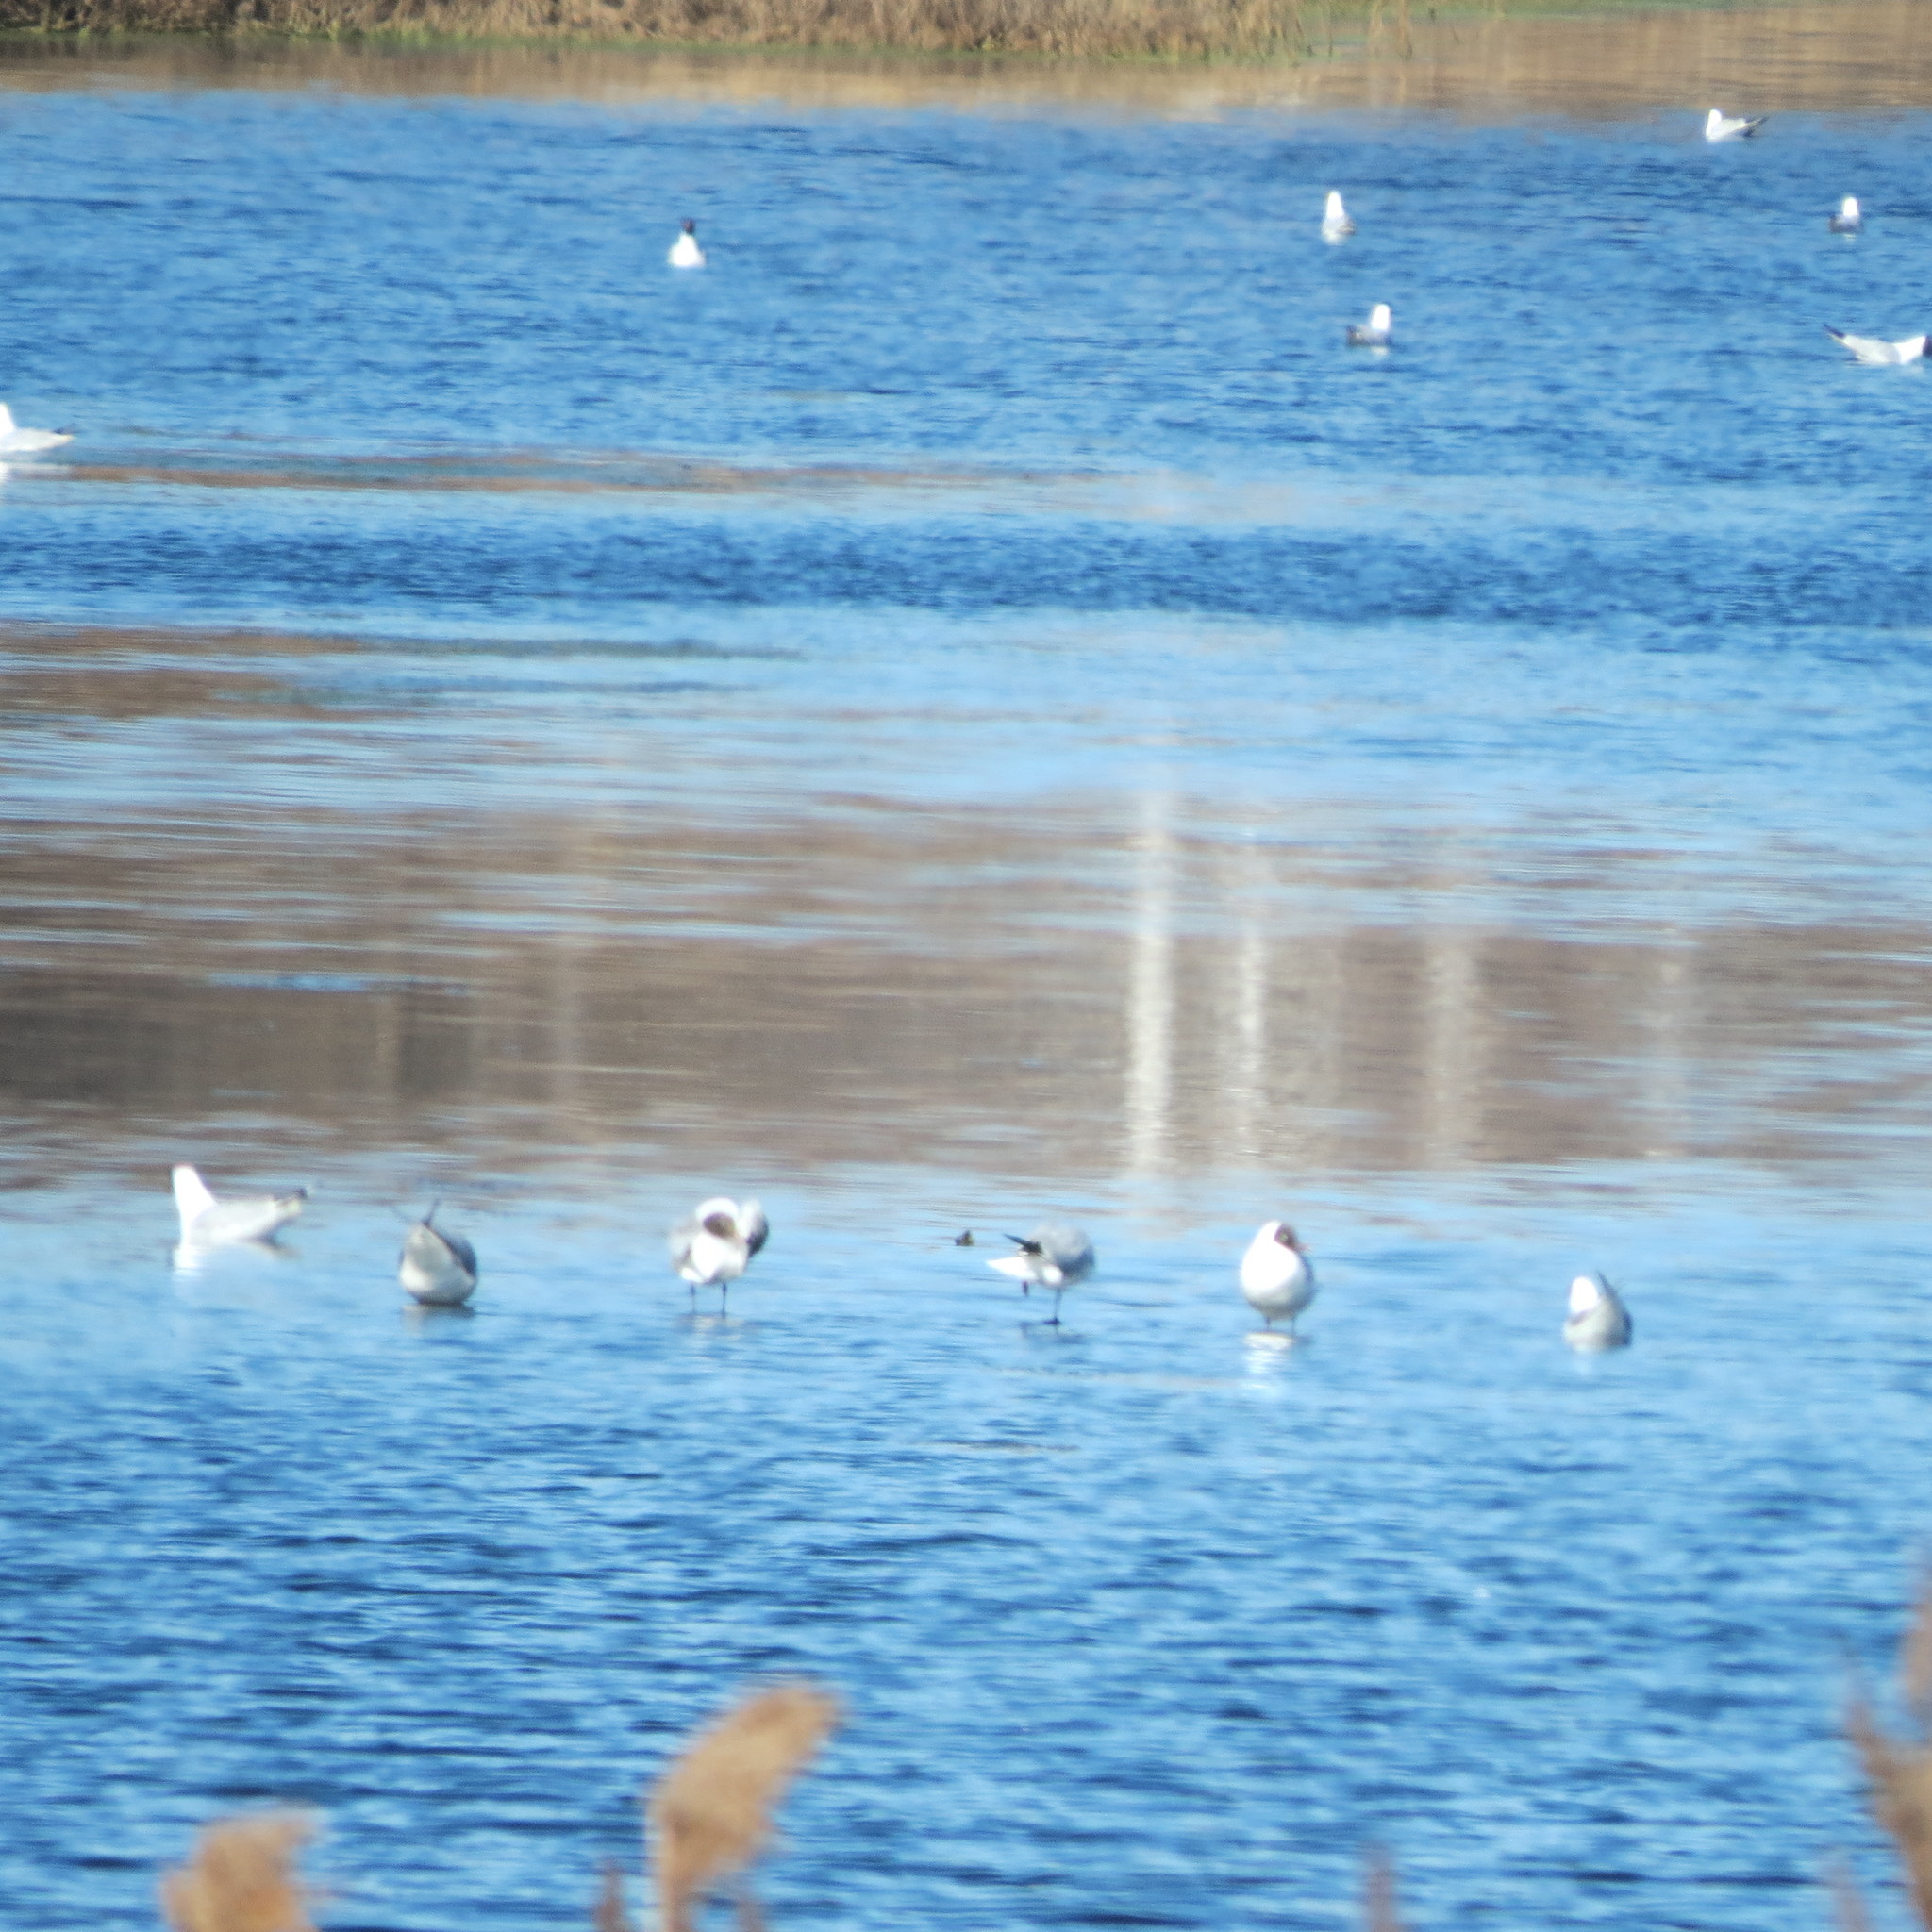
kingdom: Animalia
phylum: Chordata
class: Aves
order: Charadriiformes
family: Laridae
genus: Chroicocephalus
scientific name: Chroicocephalus ridibundus
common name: Black-headed gull
